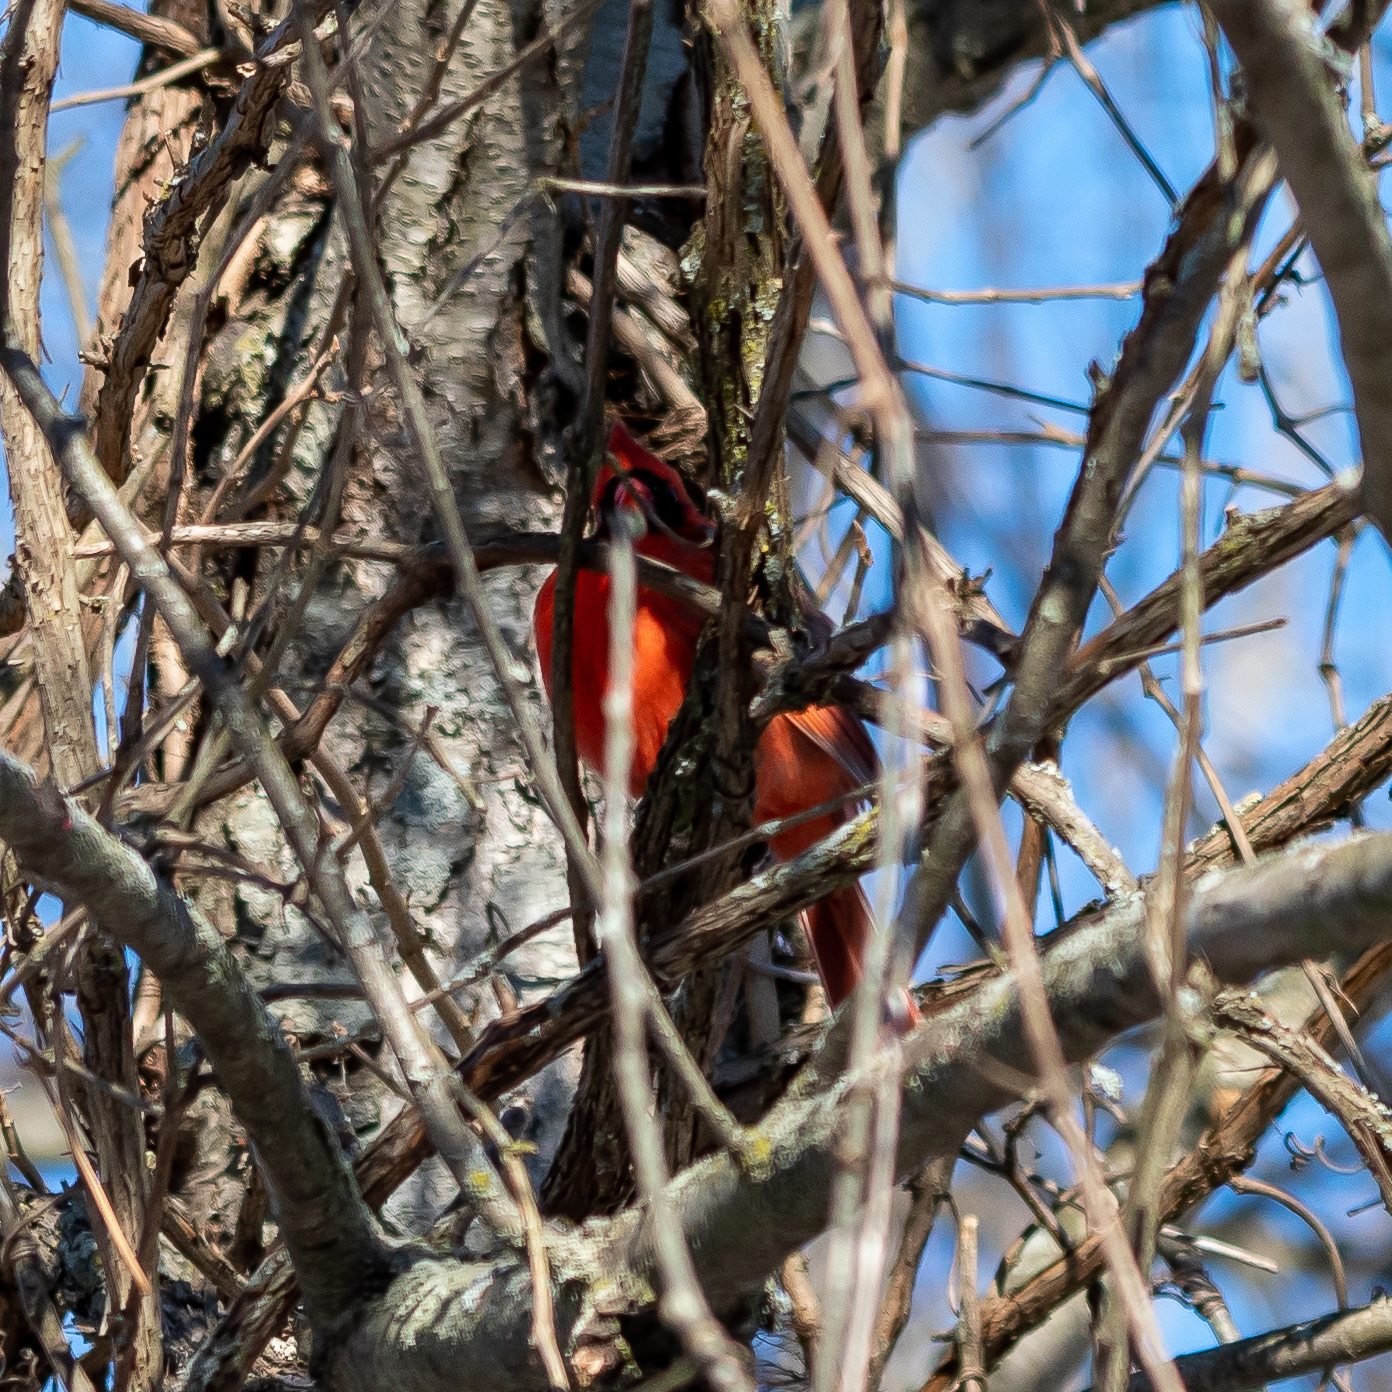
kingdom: Animalia
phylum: Chordata
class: Aves
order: Passeriformes
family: Cardinalidae
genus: Cardinalis
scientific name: Cardinalis cardinalis
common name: Northern cardinal
